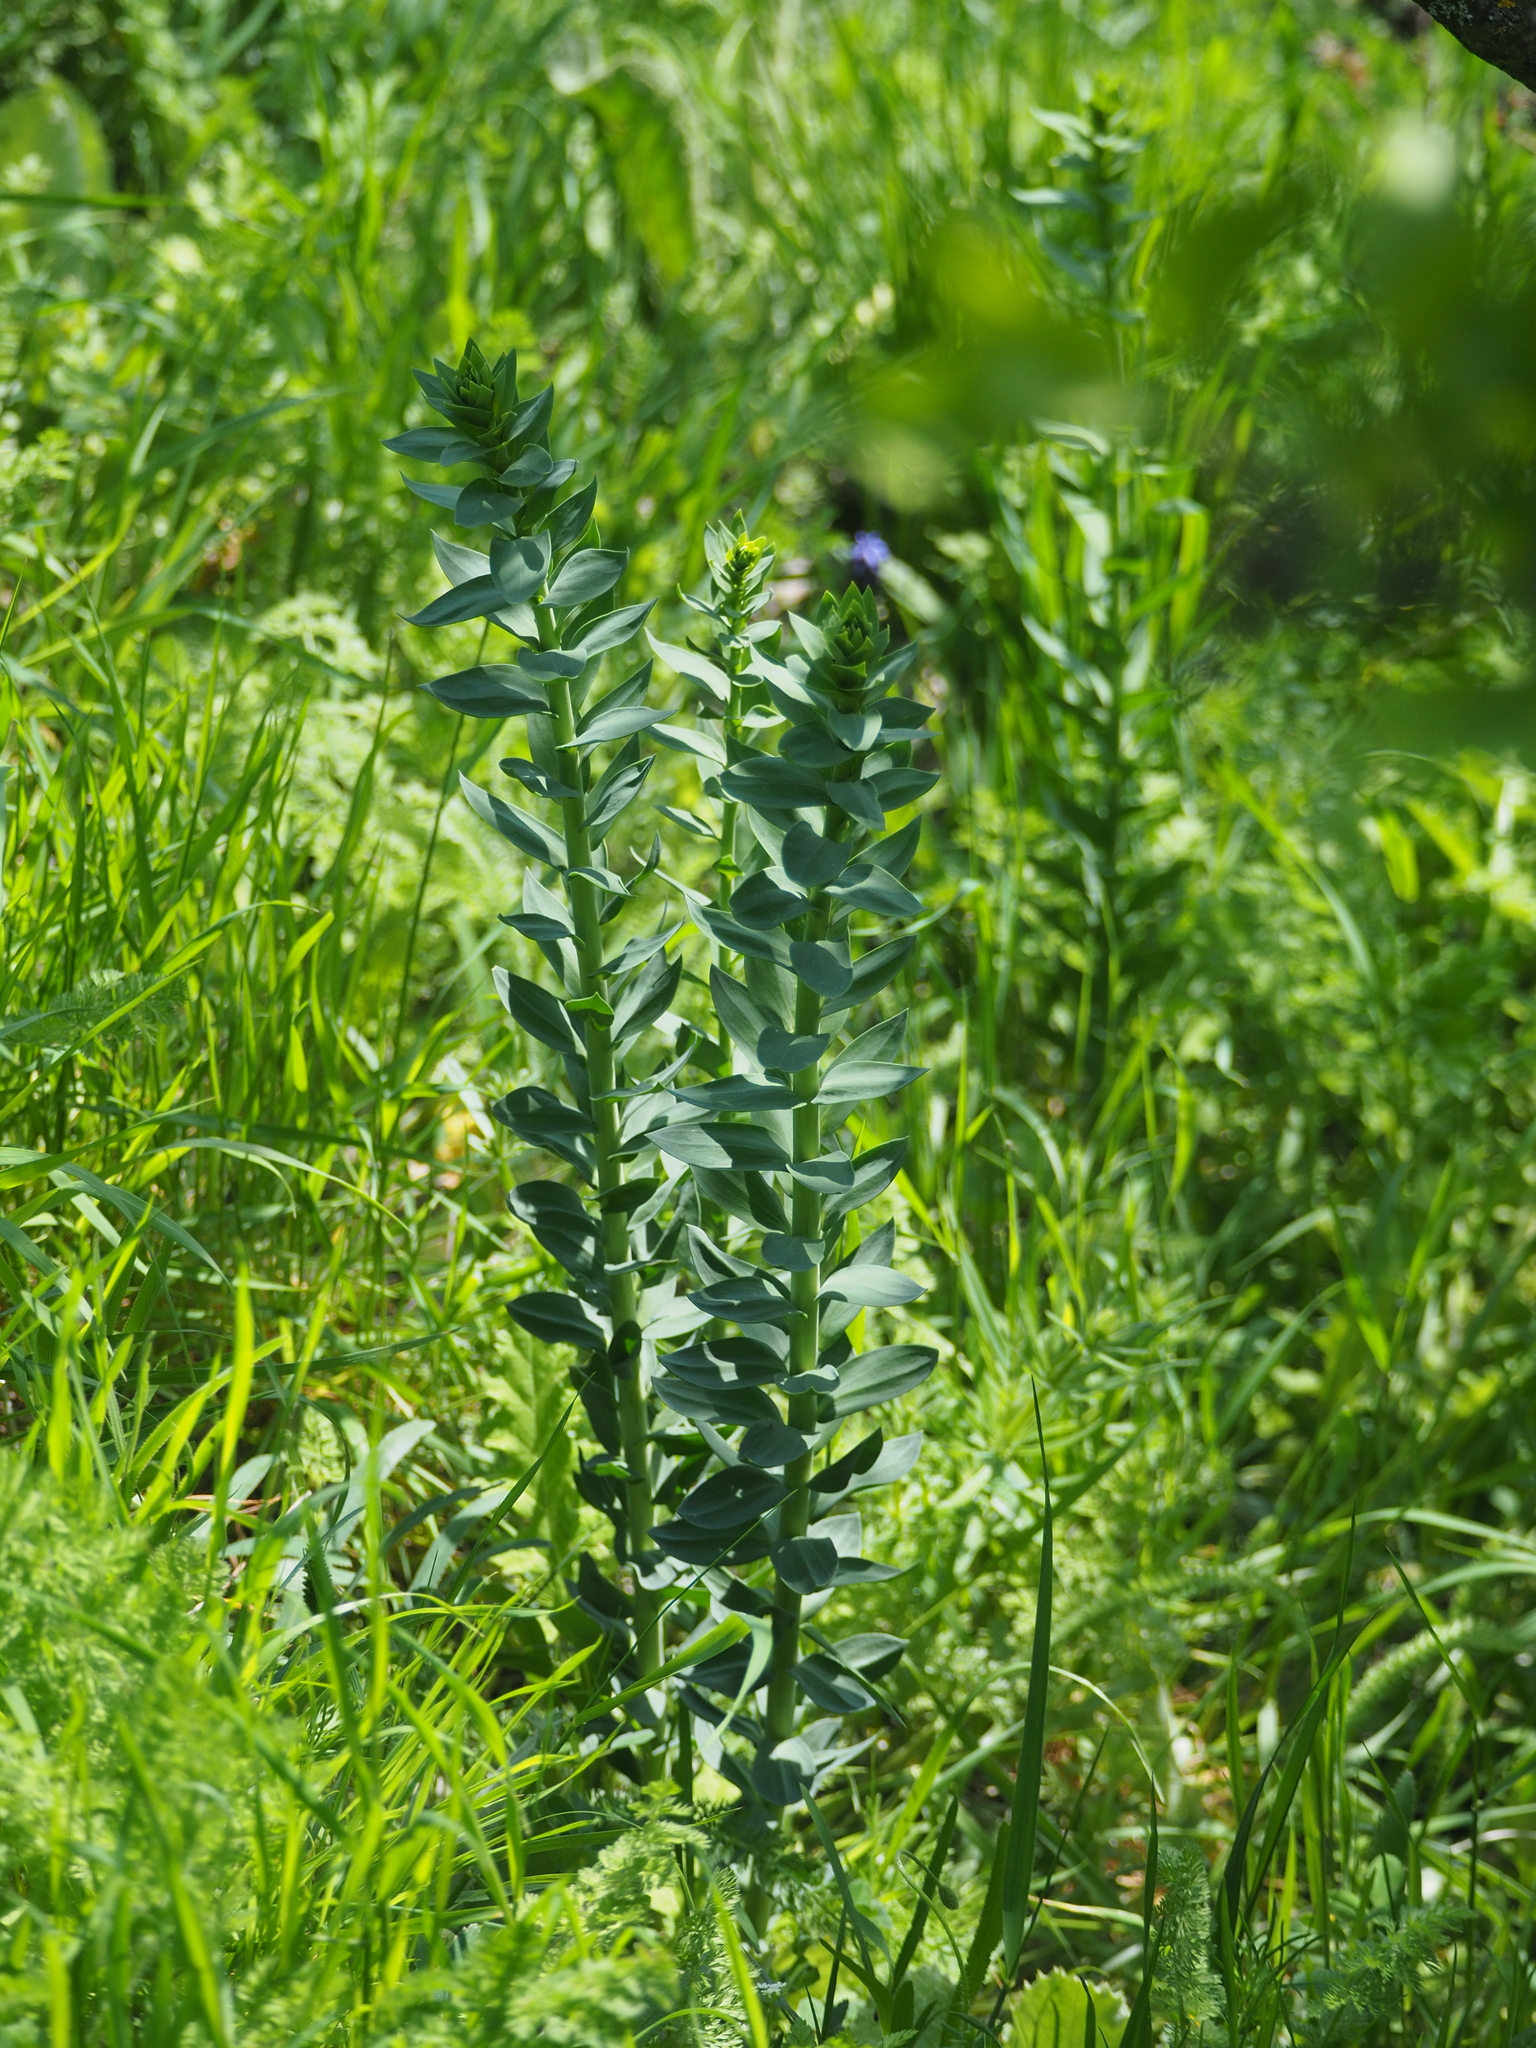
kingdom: Plantae
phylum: Tracheophyta
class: Magnoliopsida
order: Lamiales
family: Plantaginaceae
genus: Linaria
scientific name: Linaria genistifolia
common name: Broomleaf toadflax
